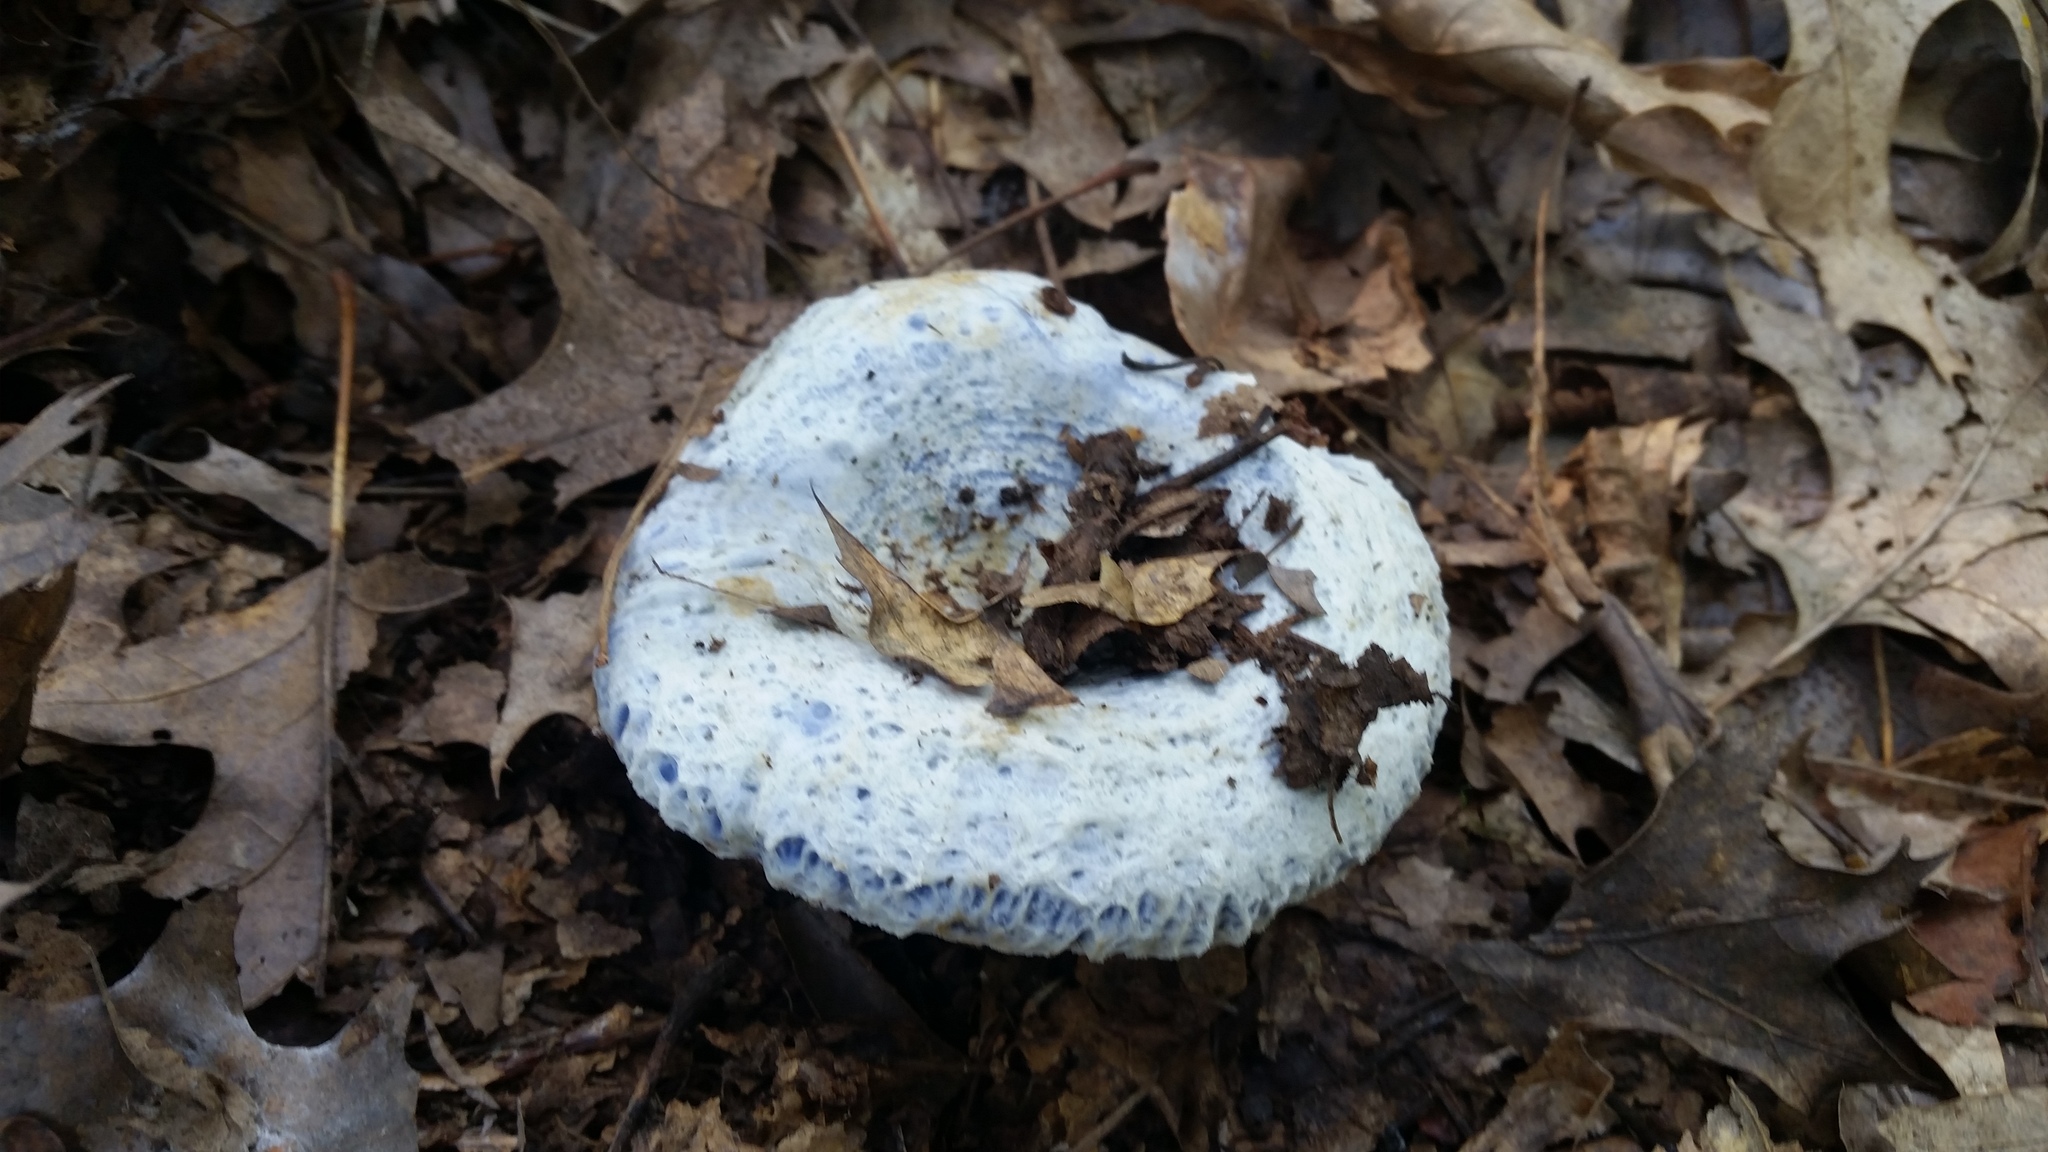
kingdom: Fungi
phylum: Basidiomycota
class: Agaricomycetes
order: Russulales
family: Russulaceae
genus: Lactarius
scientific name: Lactarius indigo
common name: Indigo milk cap
